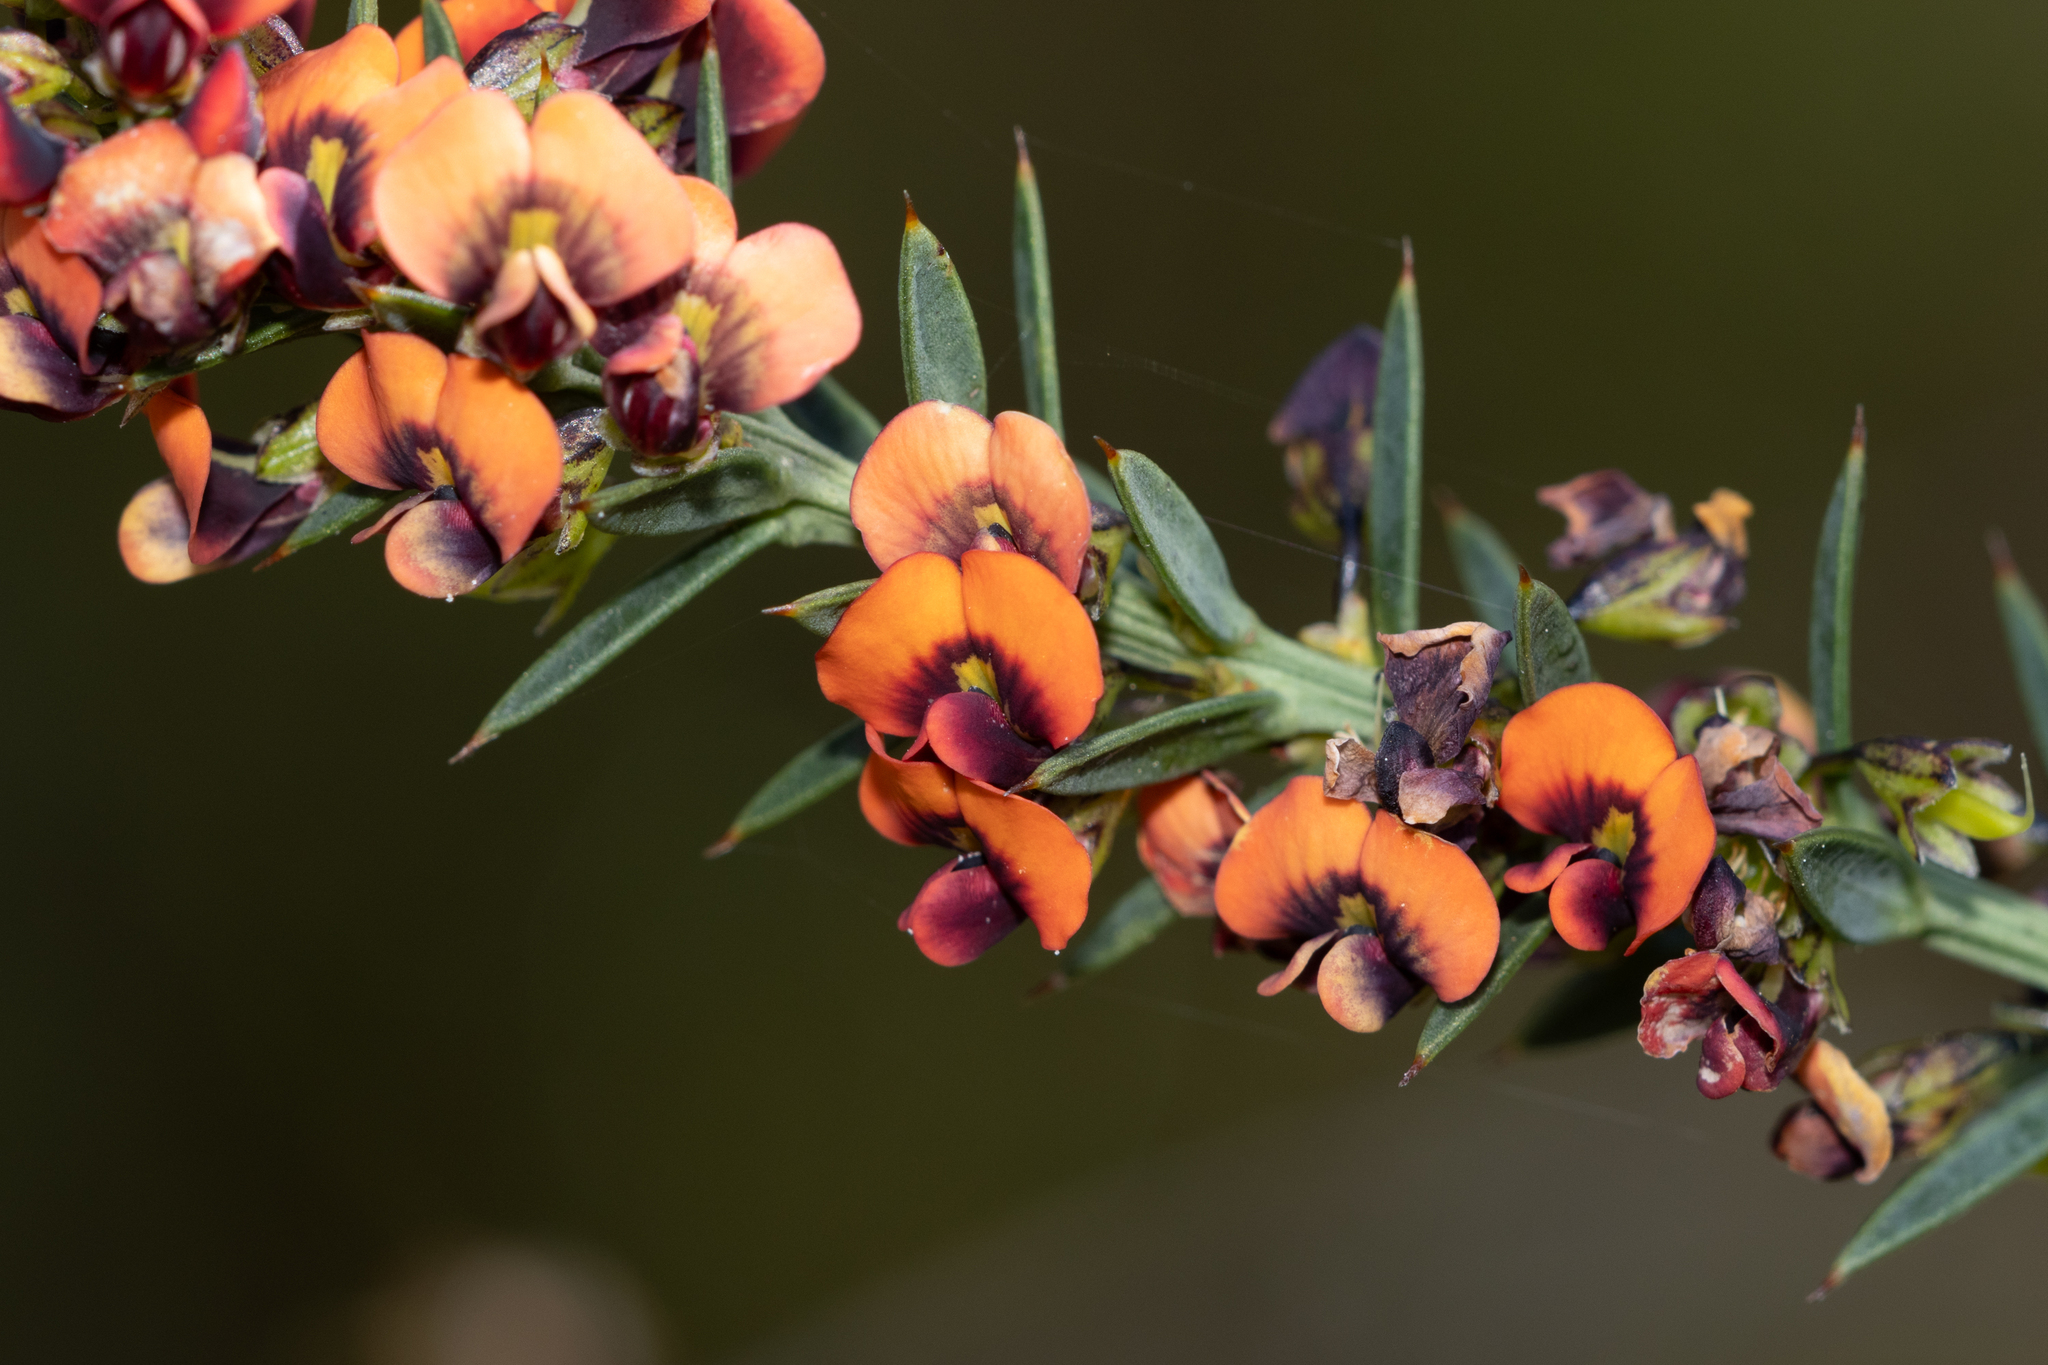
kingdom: Plantae
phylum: Tracheophyta
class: Magnoliopsida
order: Fabales
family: Fabaceae
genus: Daviesia
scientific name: Daviesia ulicifolia
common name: Gorse bitter-pea
